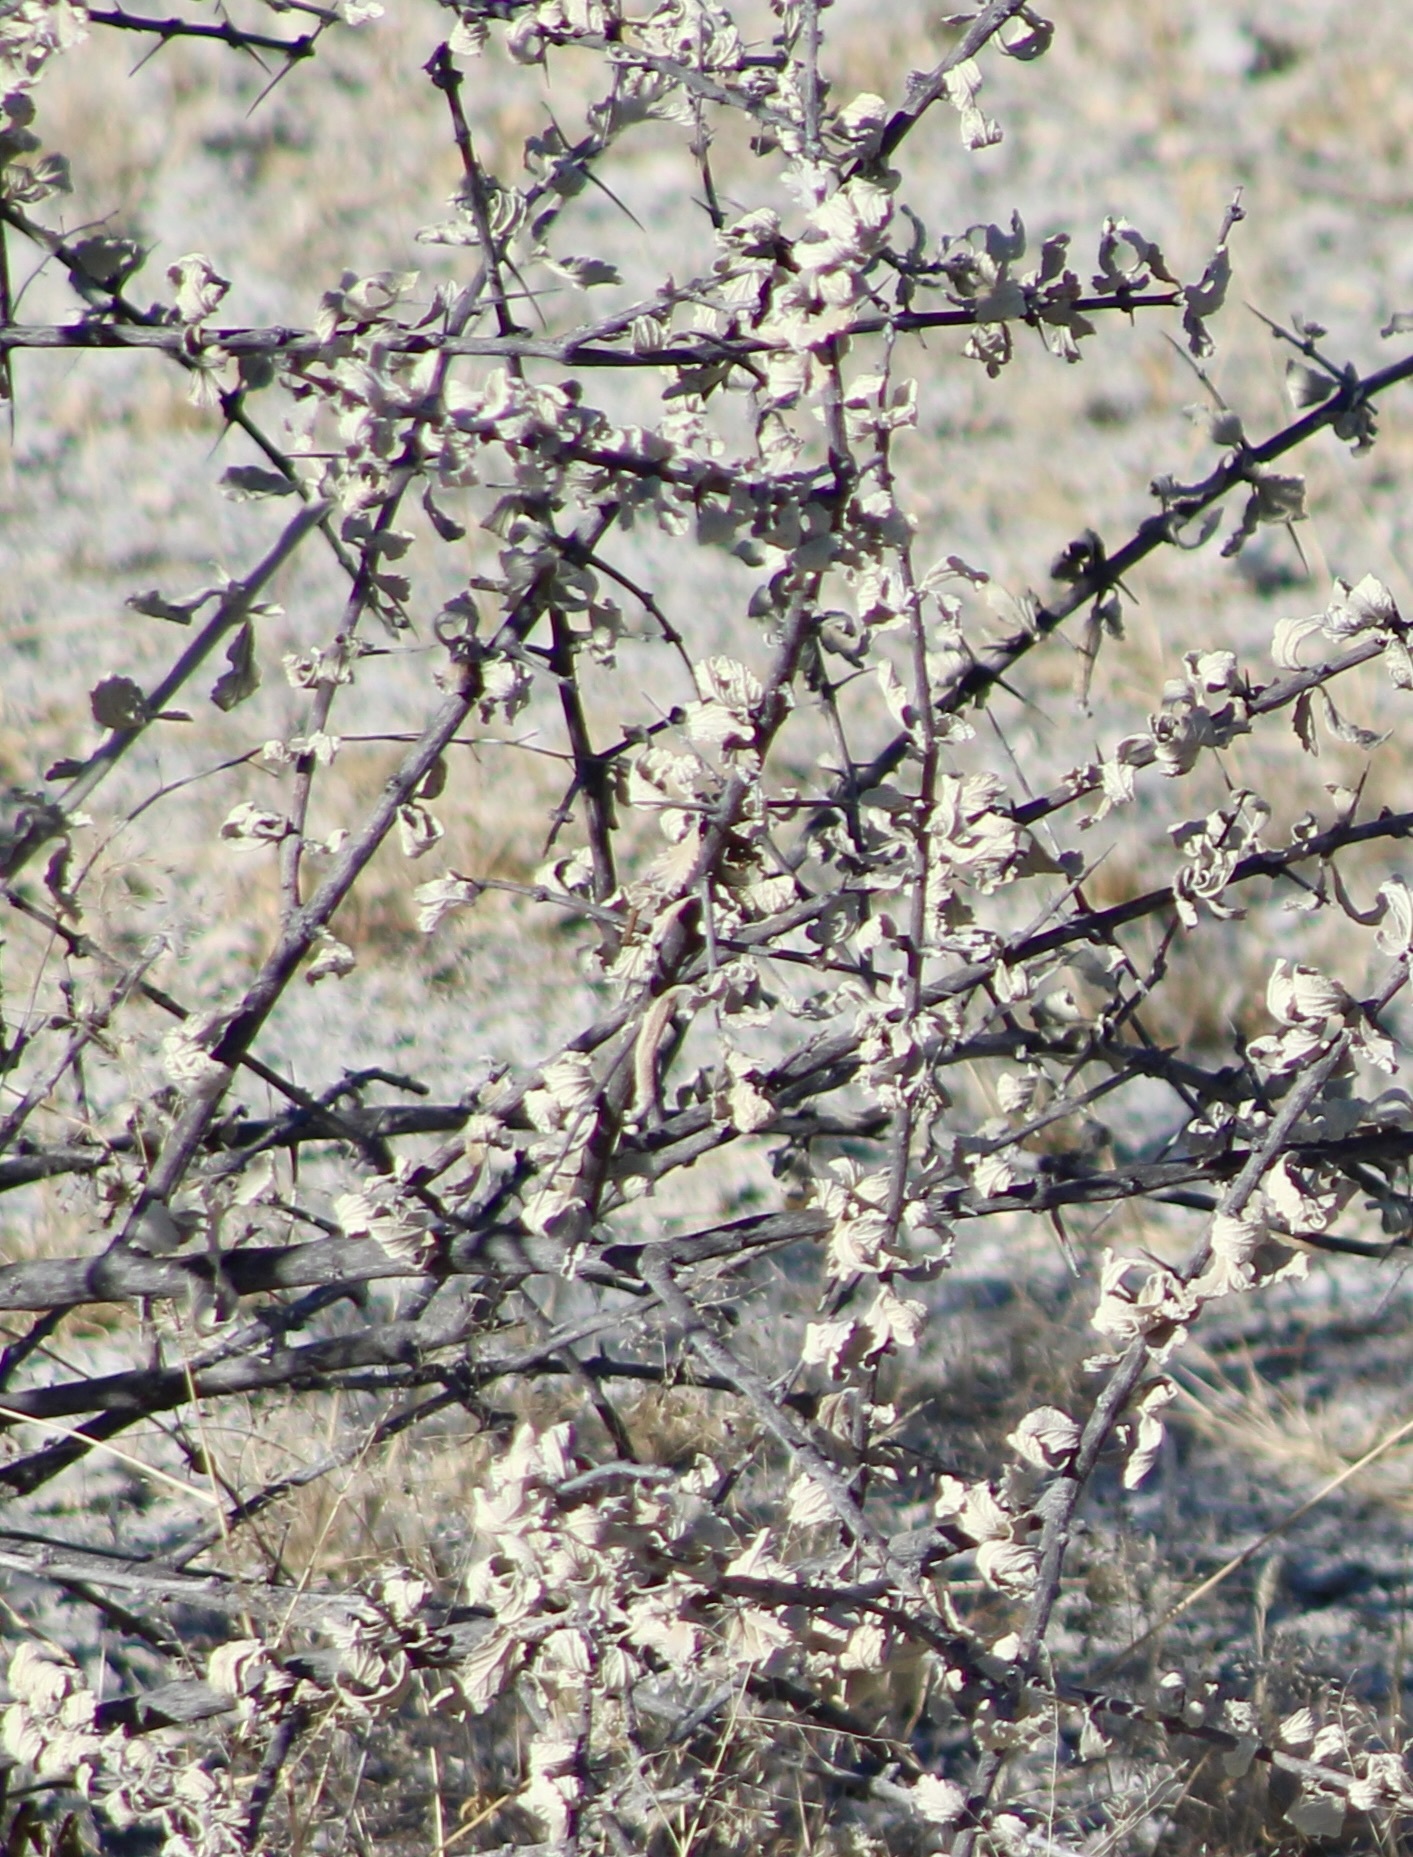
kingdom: Plantae
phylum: Tracheophyta
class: Magnoliopsida
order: Lamiales
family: Bignoniaceae
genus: Catophractes
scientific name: Catophractes alexandri
